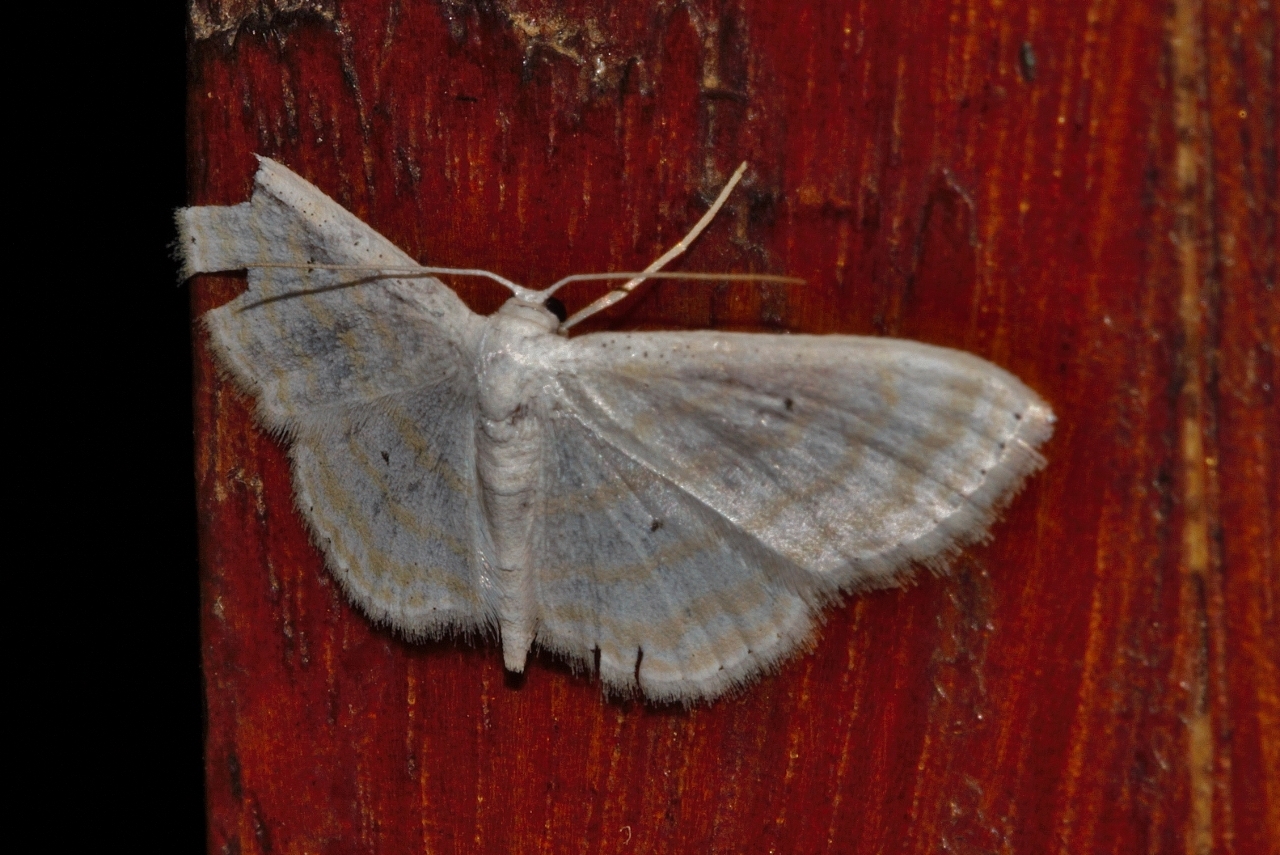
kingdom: Animalia
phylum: Arthropoda
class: Insecta
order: Lepidoptera
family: Geometridae
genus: Scopula
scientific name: Scopula penultima
